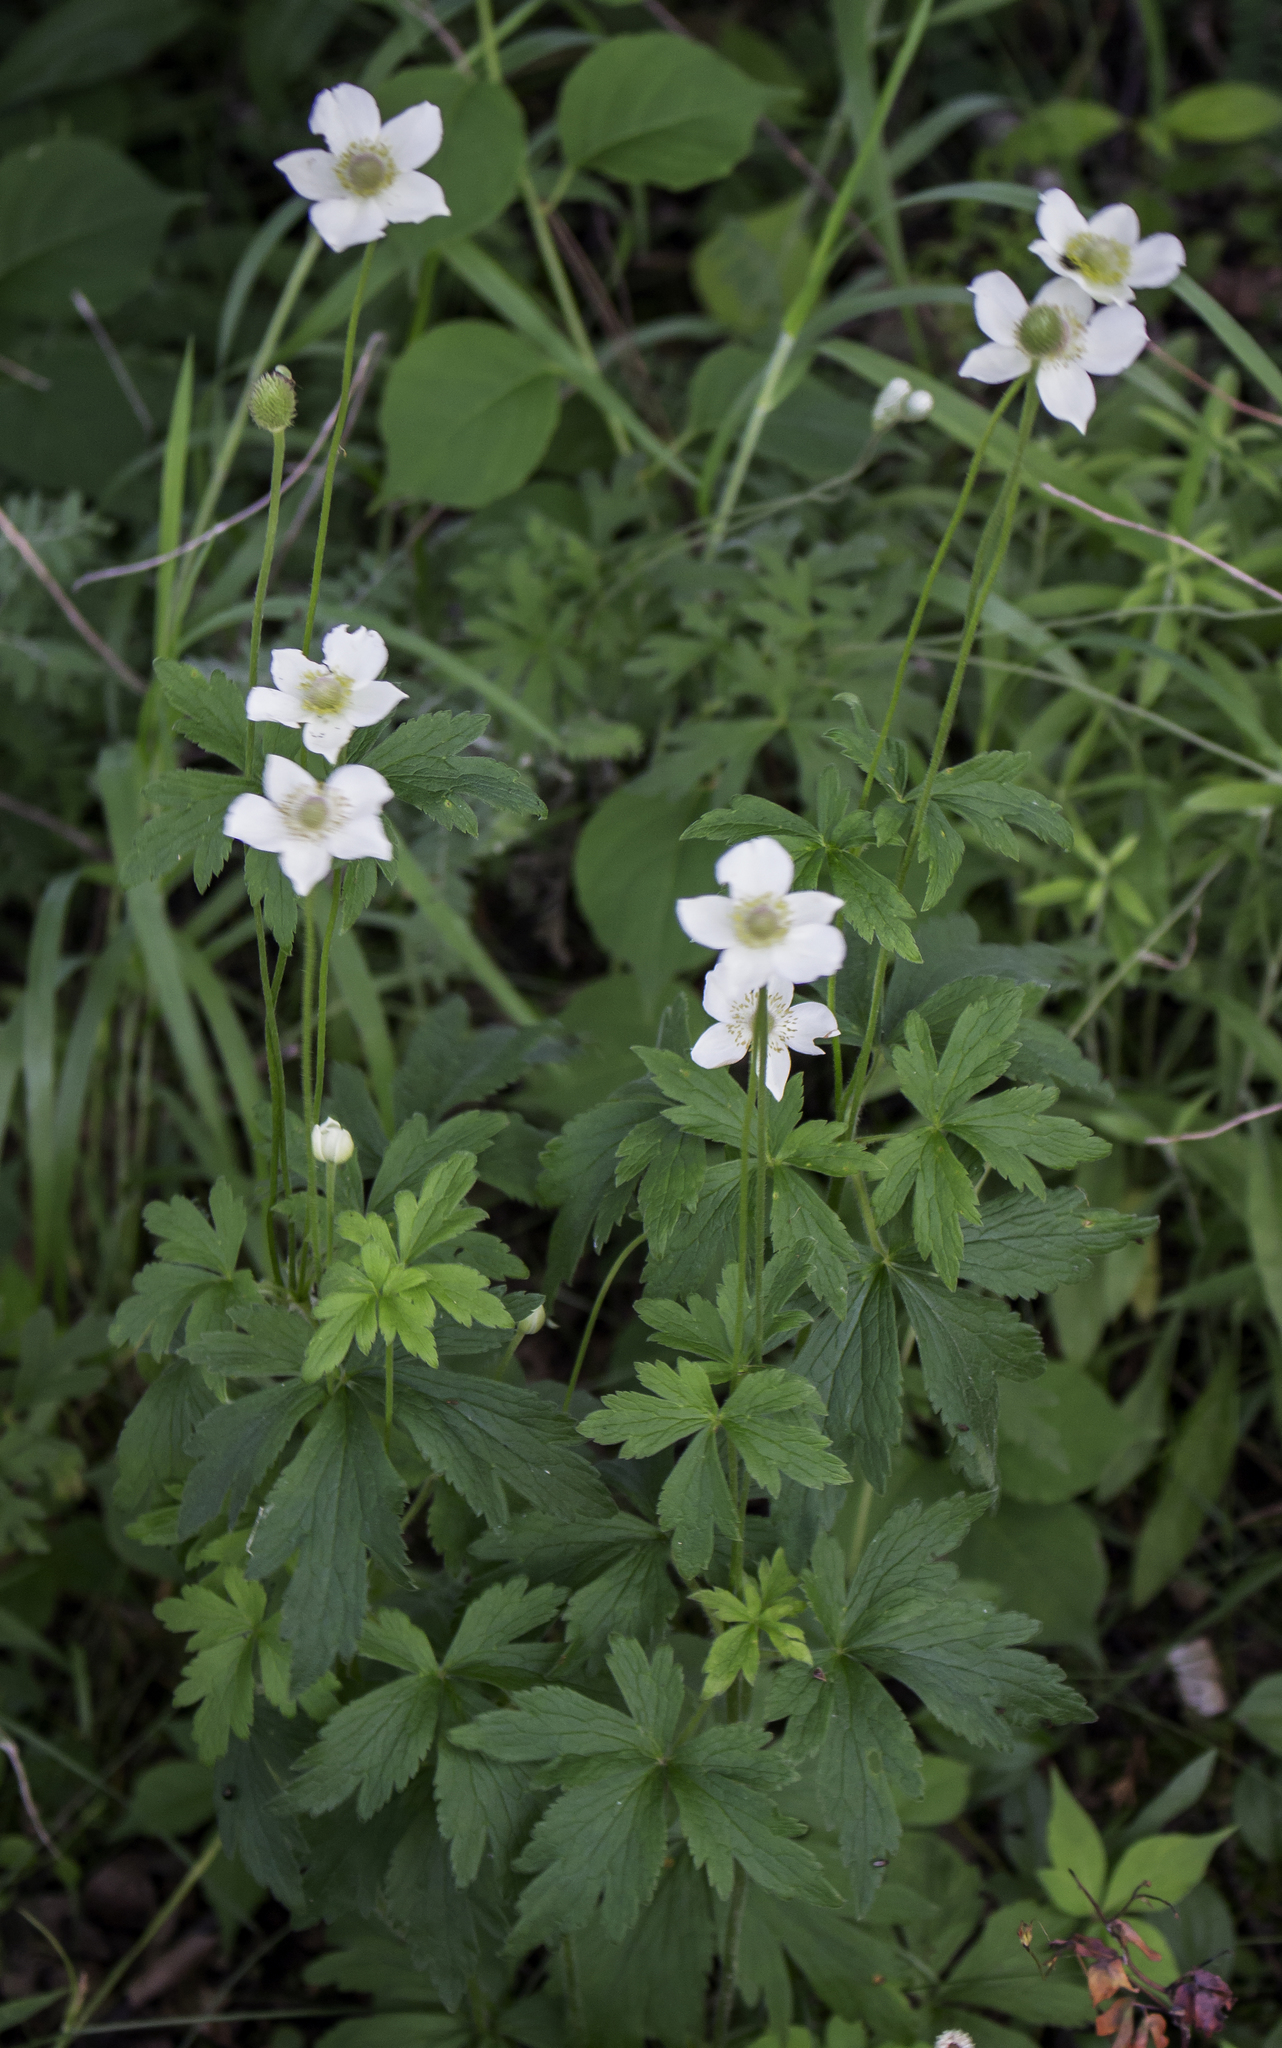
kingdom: Plantae
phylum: Tracheophyta
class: Magnoliopsida
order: Ranunculales
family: Ranunculaceae
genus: Anemone
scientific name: Anemone virginiana
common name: Tall anemone
